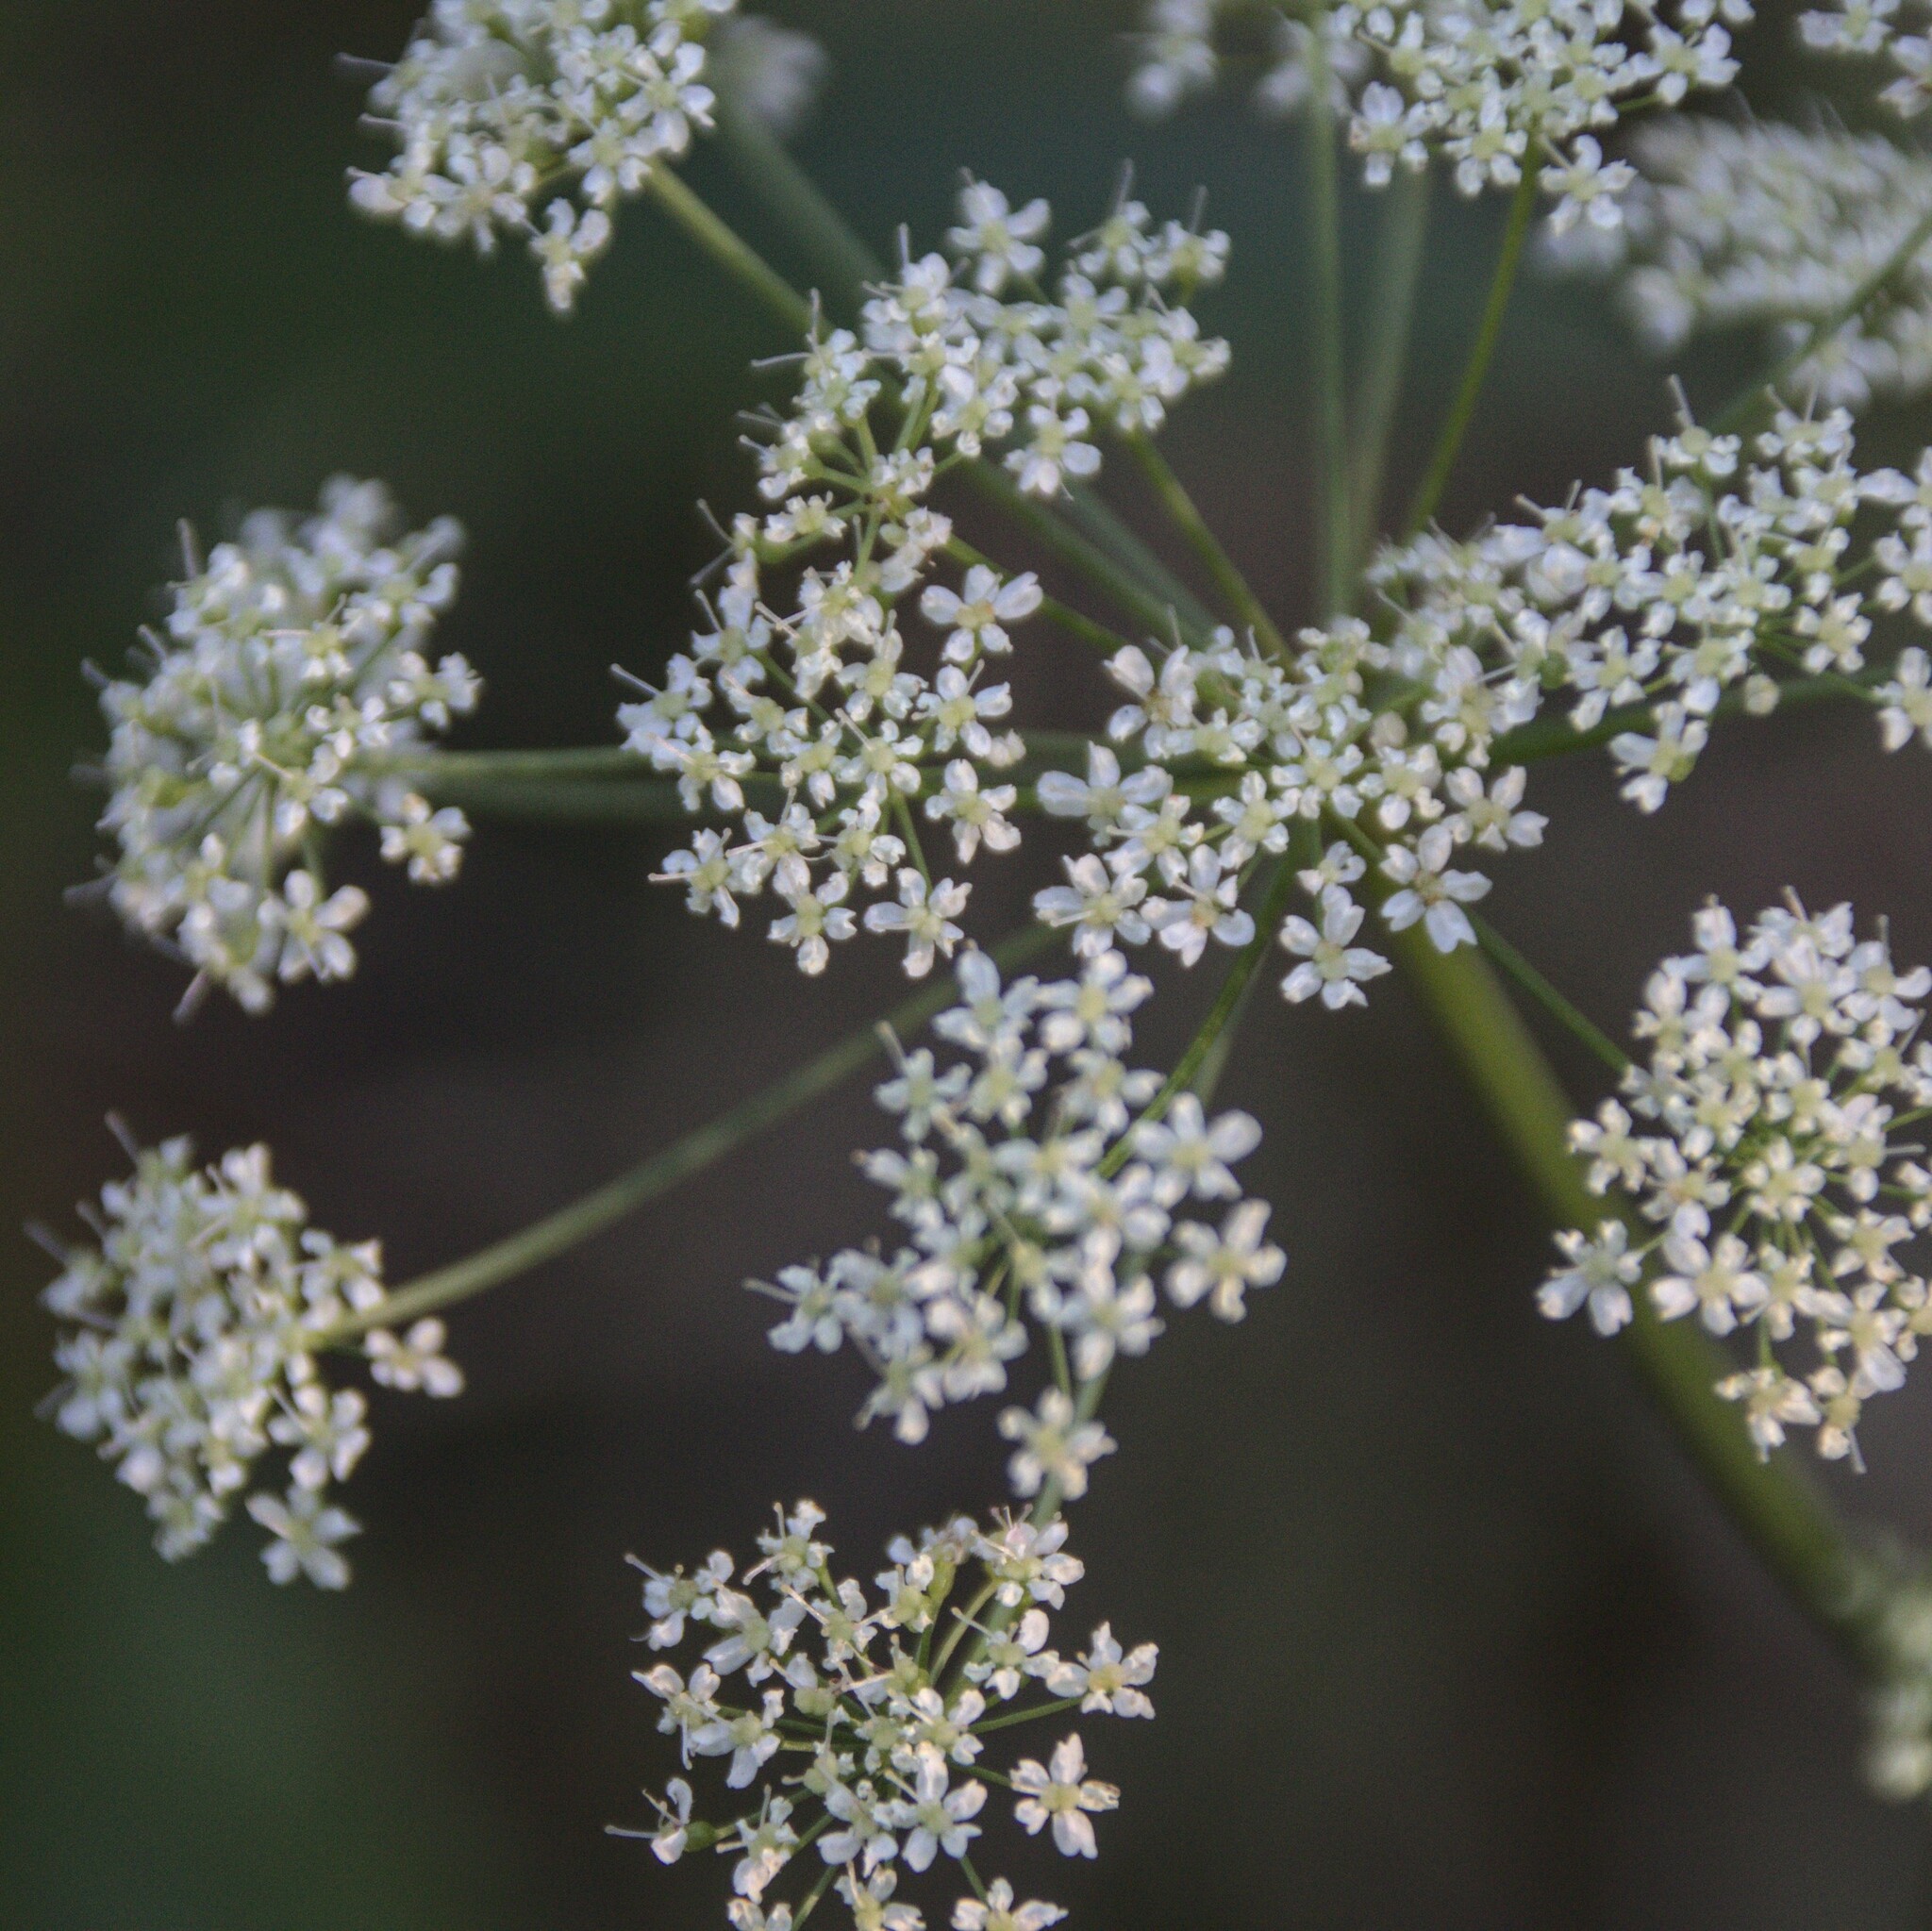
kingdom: Plantae
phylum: Tracheophyta
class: Magnoliopsida
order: Apiales
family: Apiaceae
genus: Pimpinella
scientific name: Pimpinella saxifraga
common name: Burnet-saxifrage
